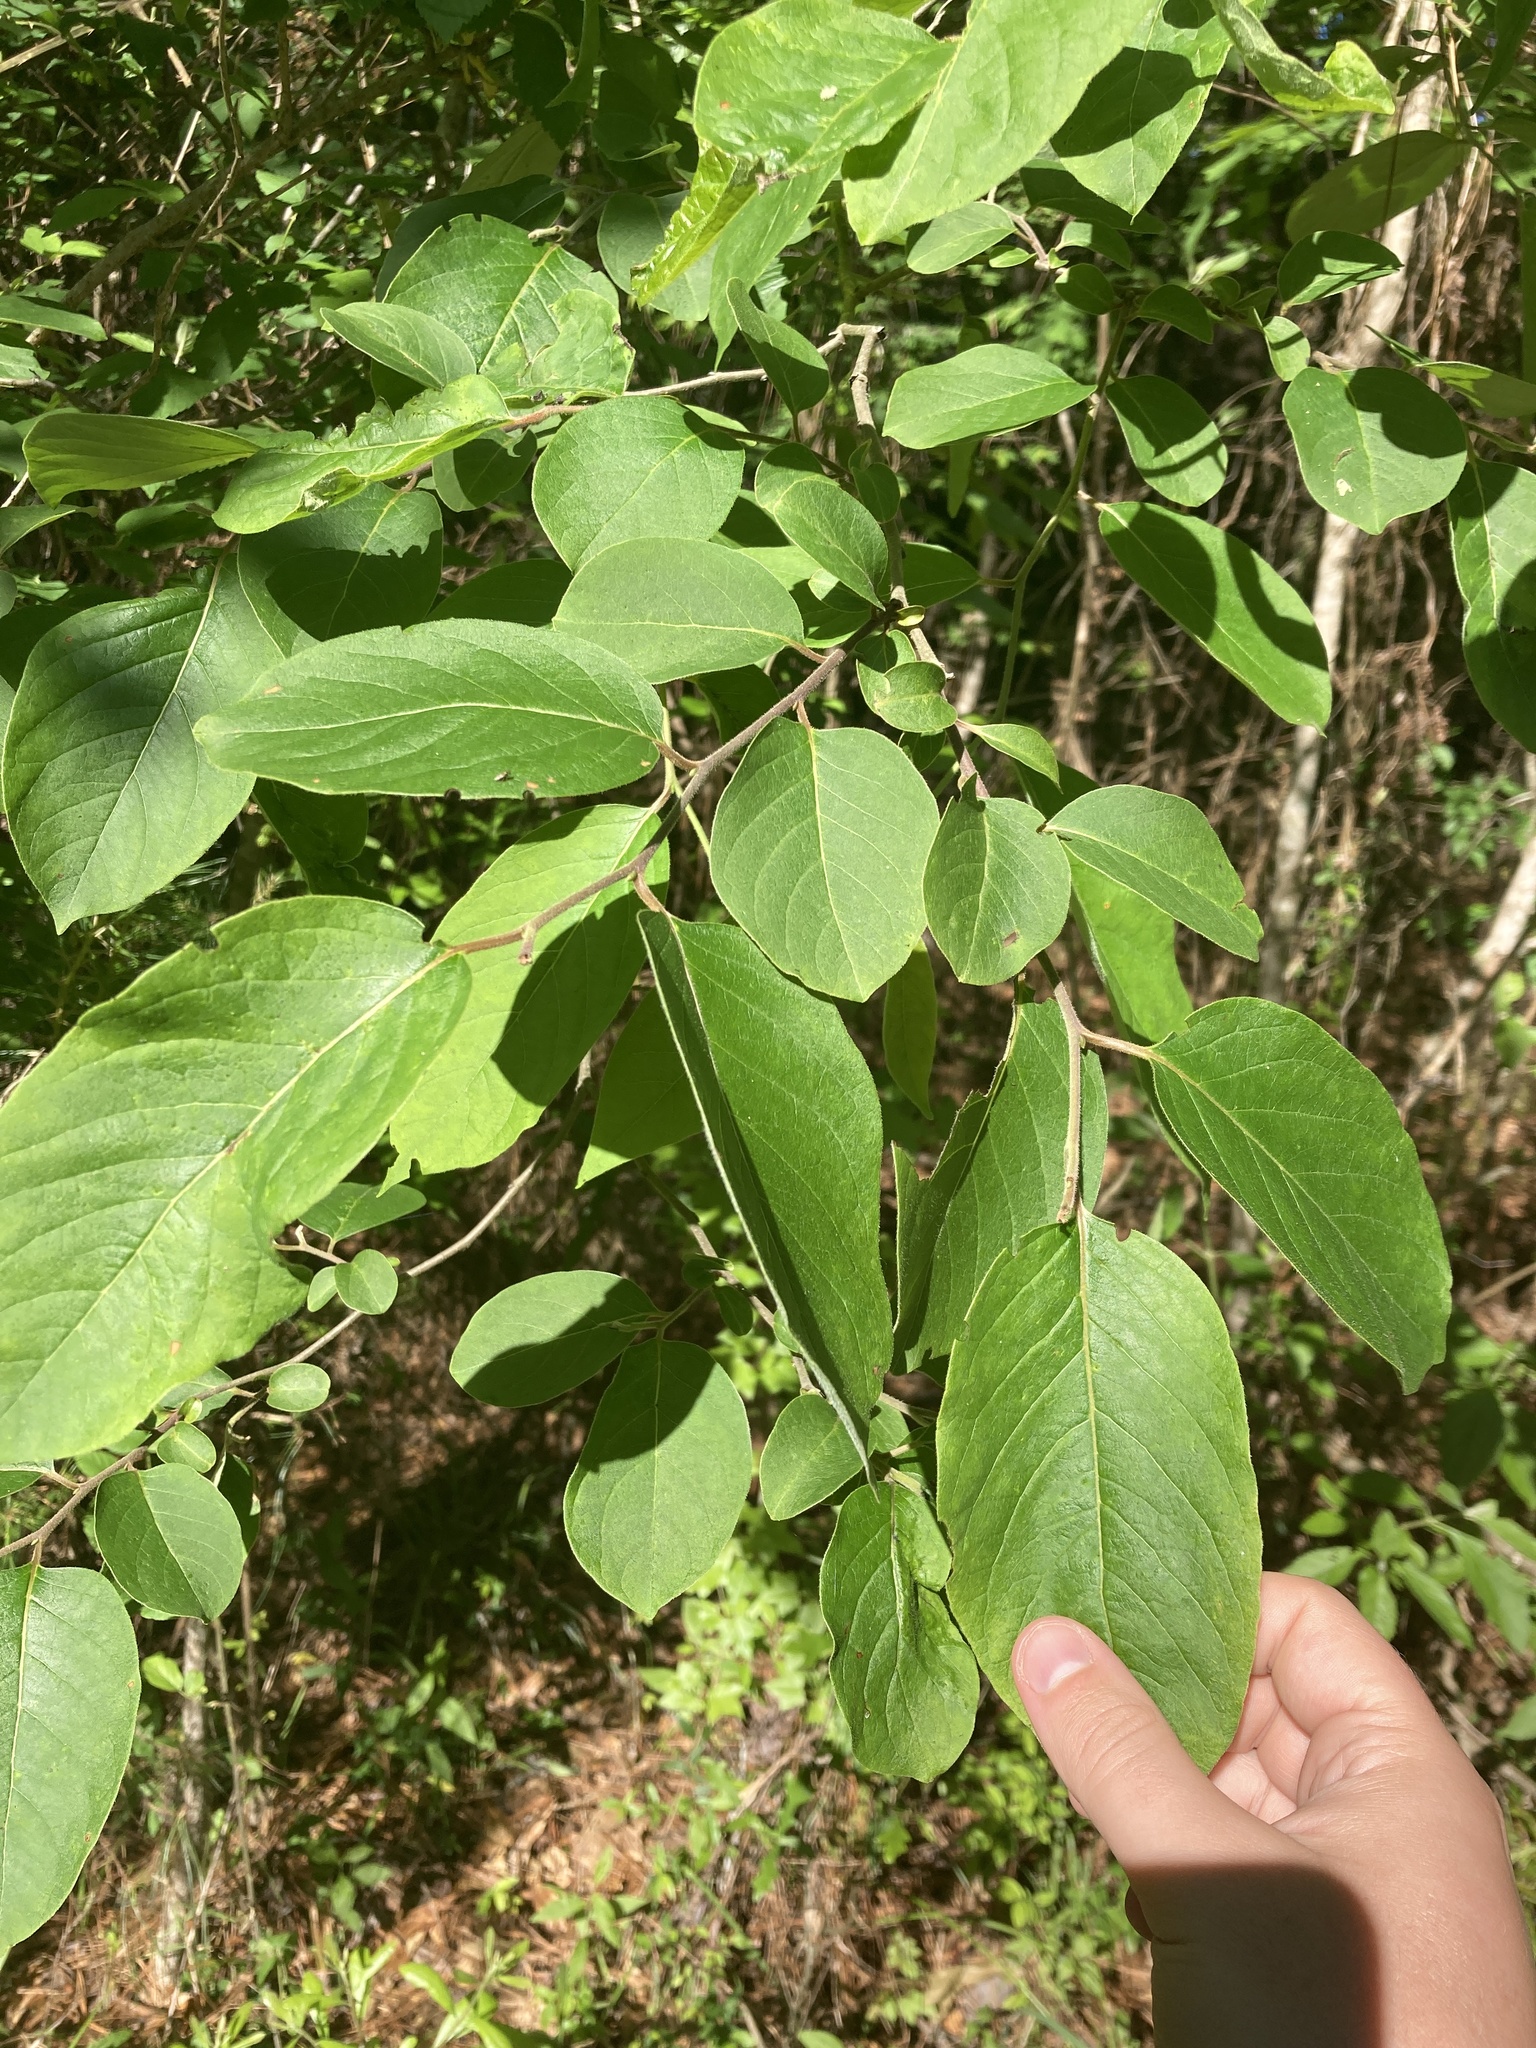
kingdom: Plantae
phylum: Tracheophyta
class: Magnoliopsida
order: Ericales
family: Ebenaceae
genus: Diospyros
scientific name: Diospyros virginiana
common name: Persimmon
